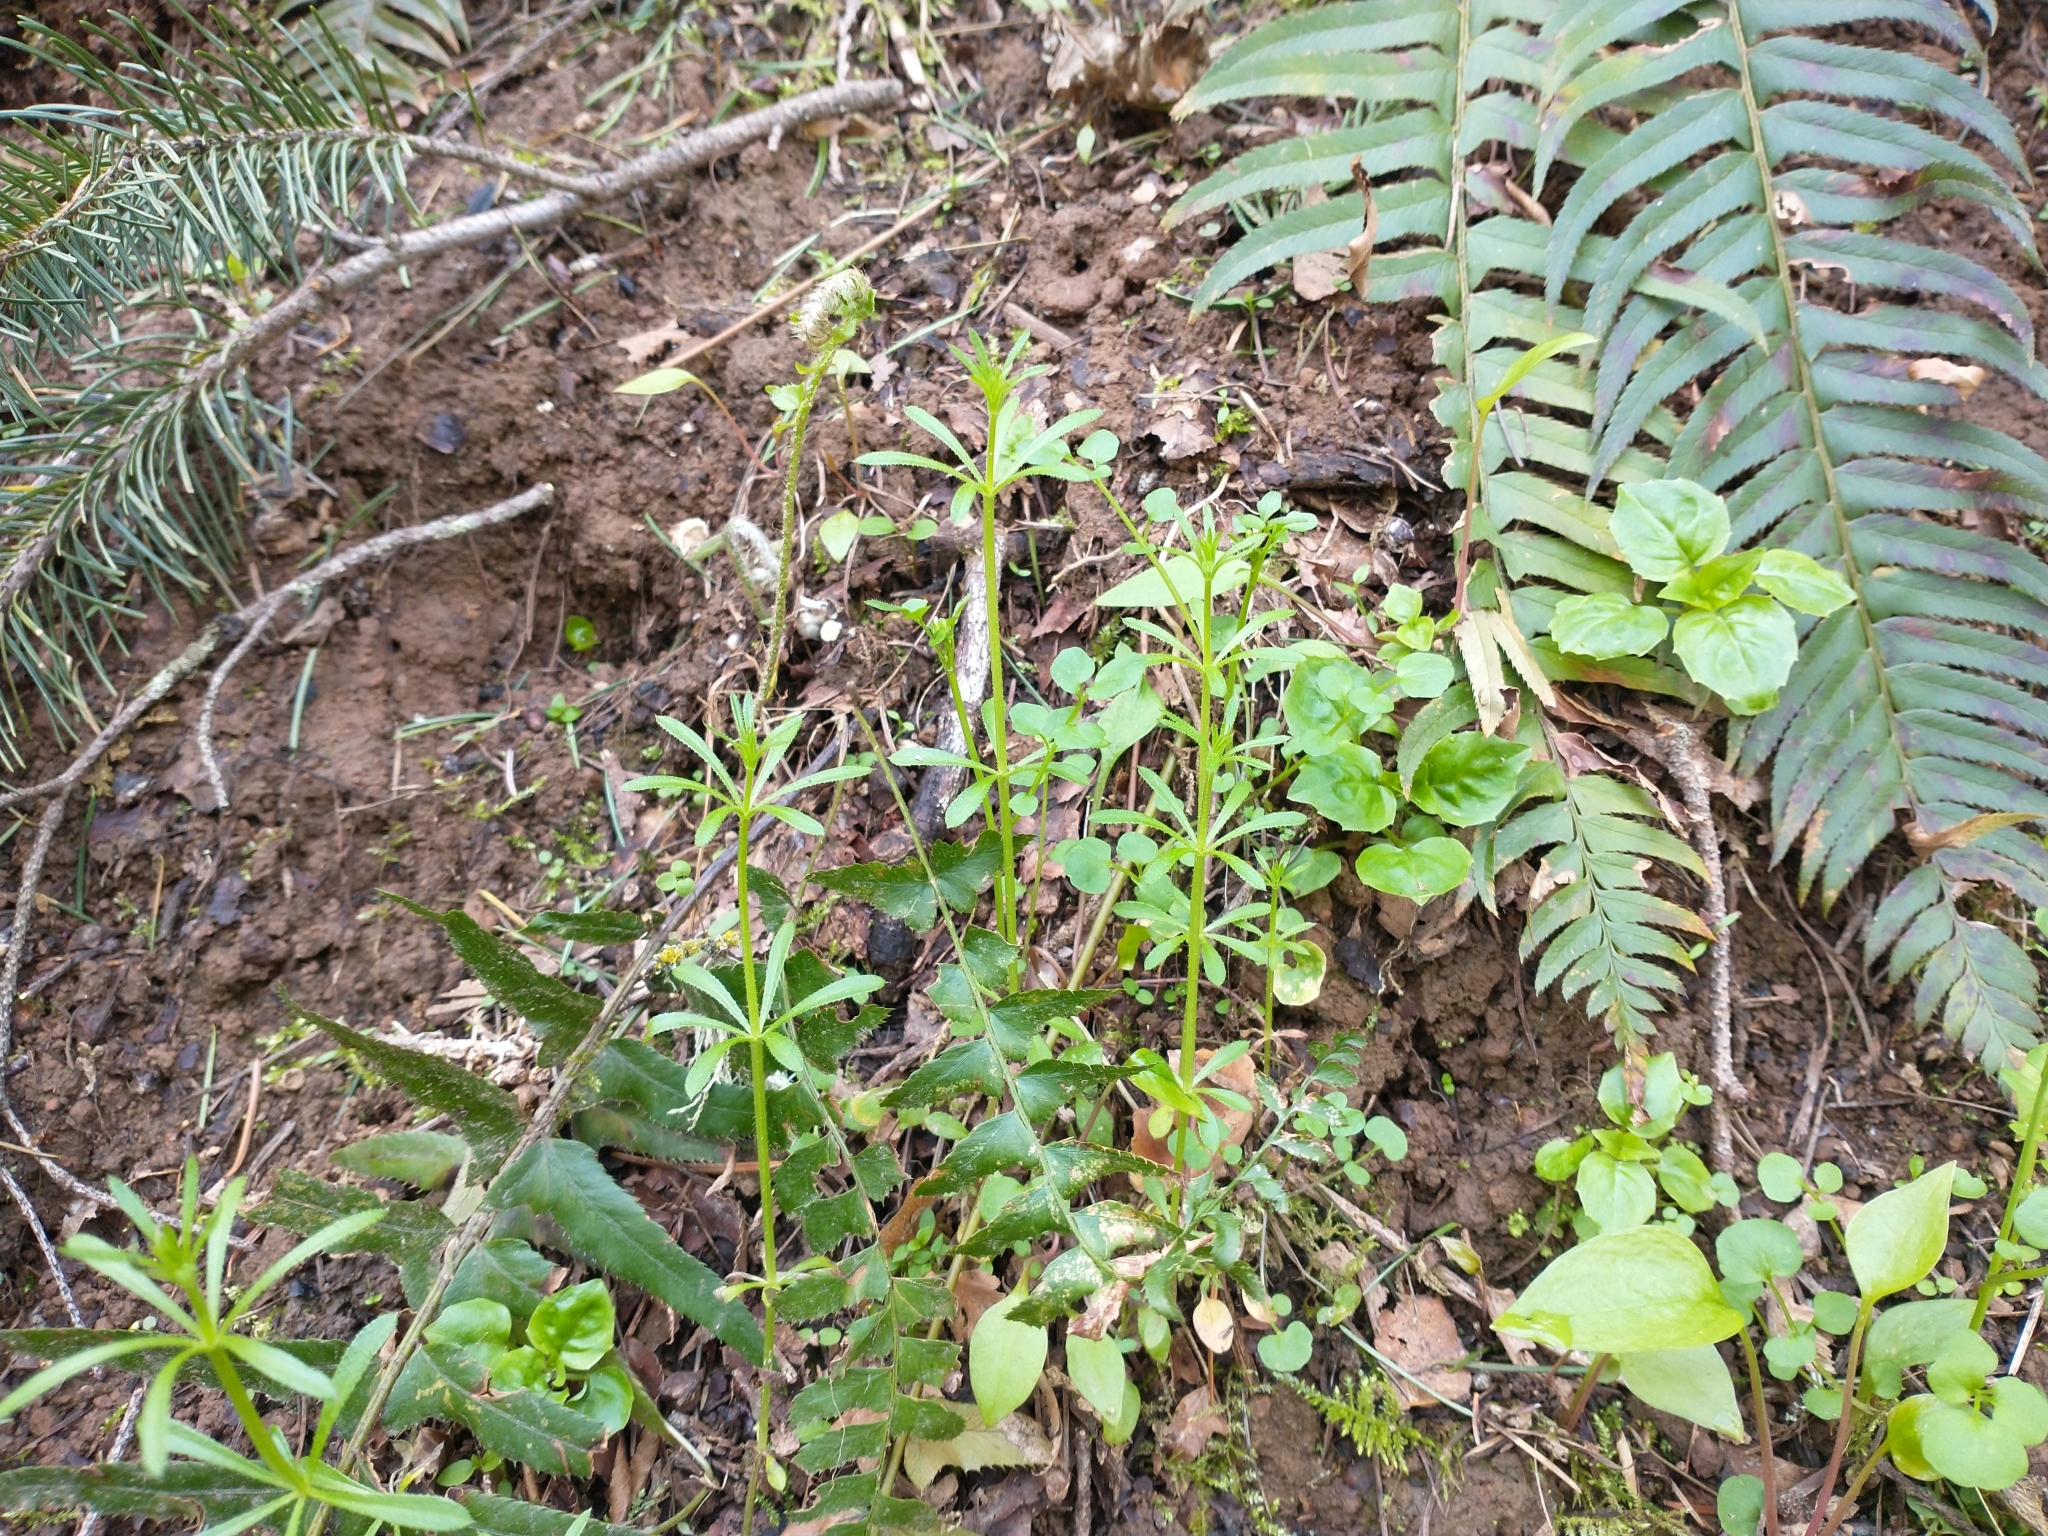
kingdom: Plantae
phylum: Tracheophyta
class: Magnoliopsida
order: Gentianales
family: Rubiaceae
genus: Galium
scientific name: Galium aparine
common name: Cleavers
